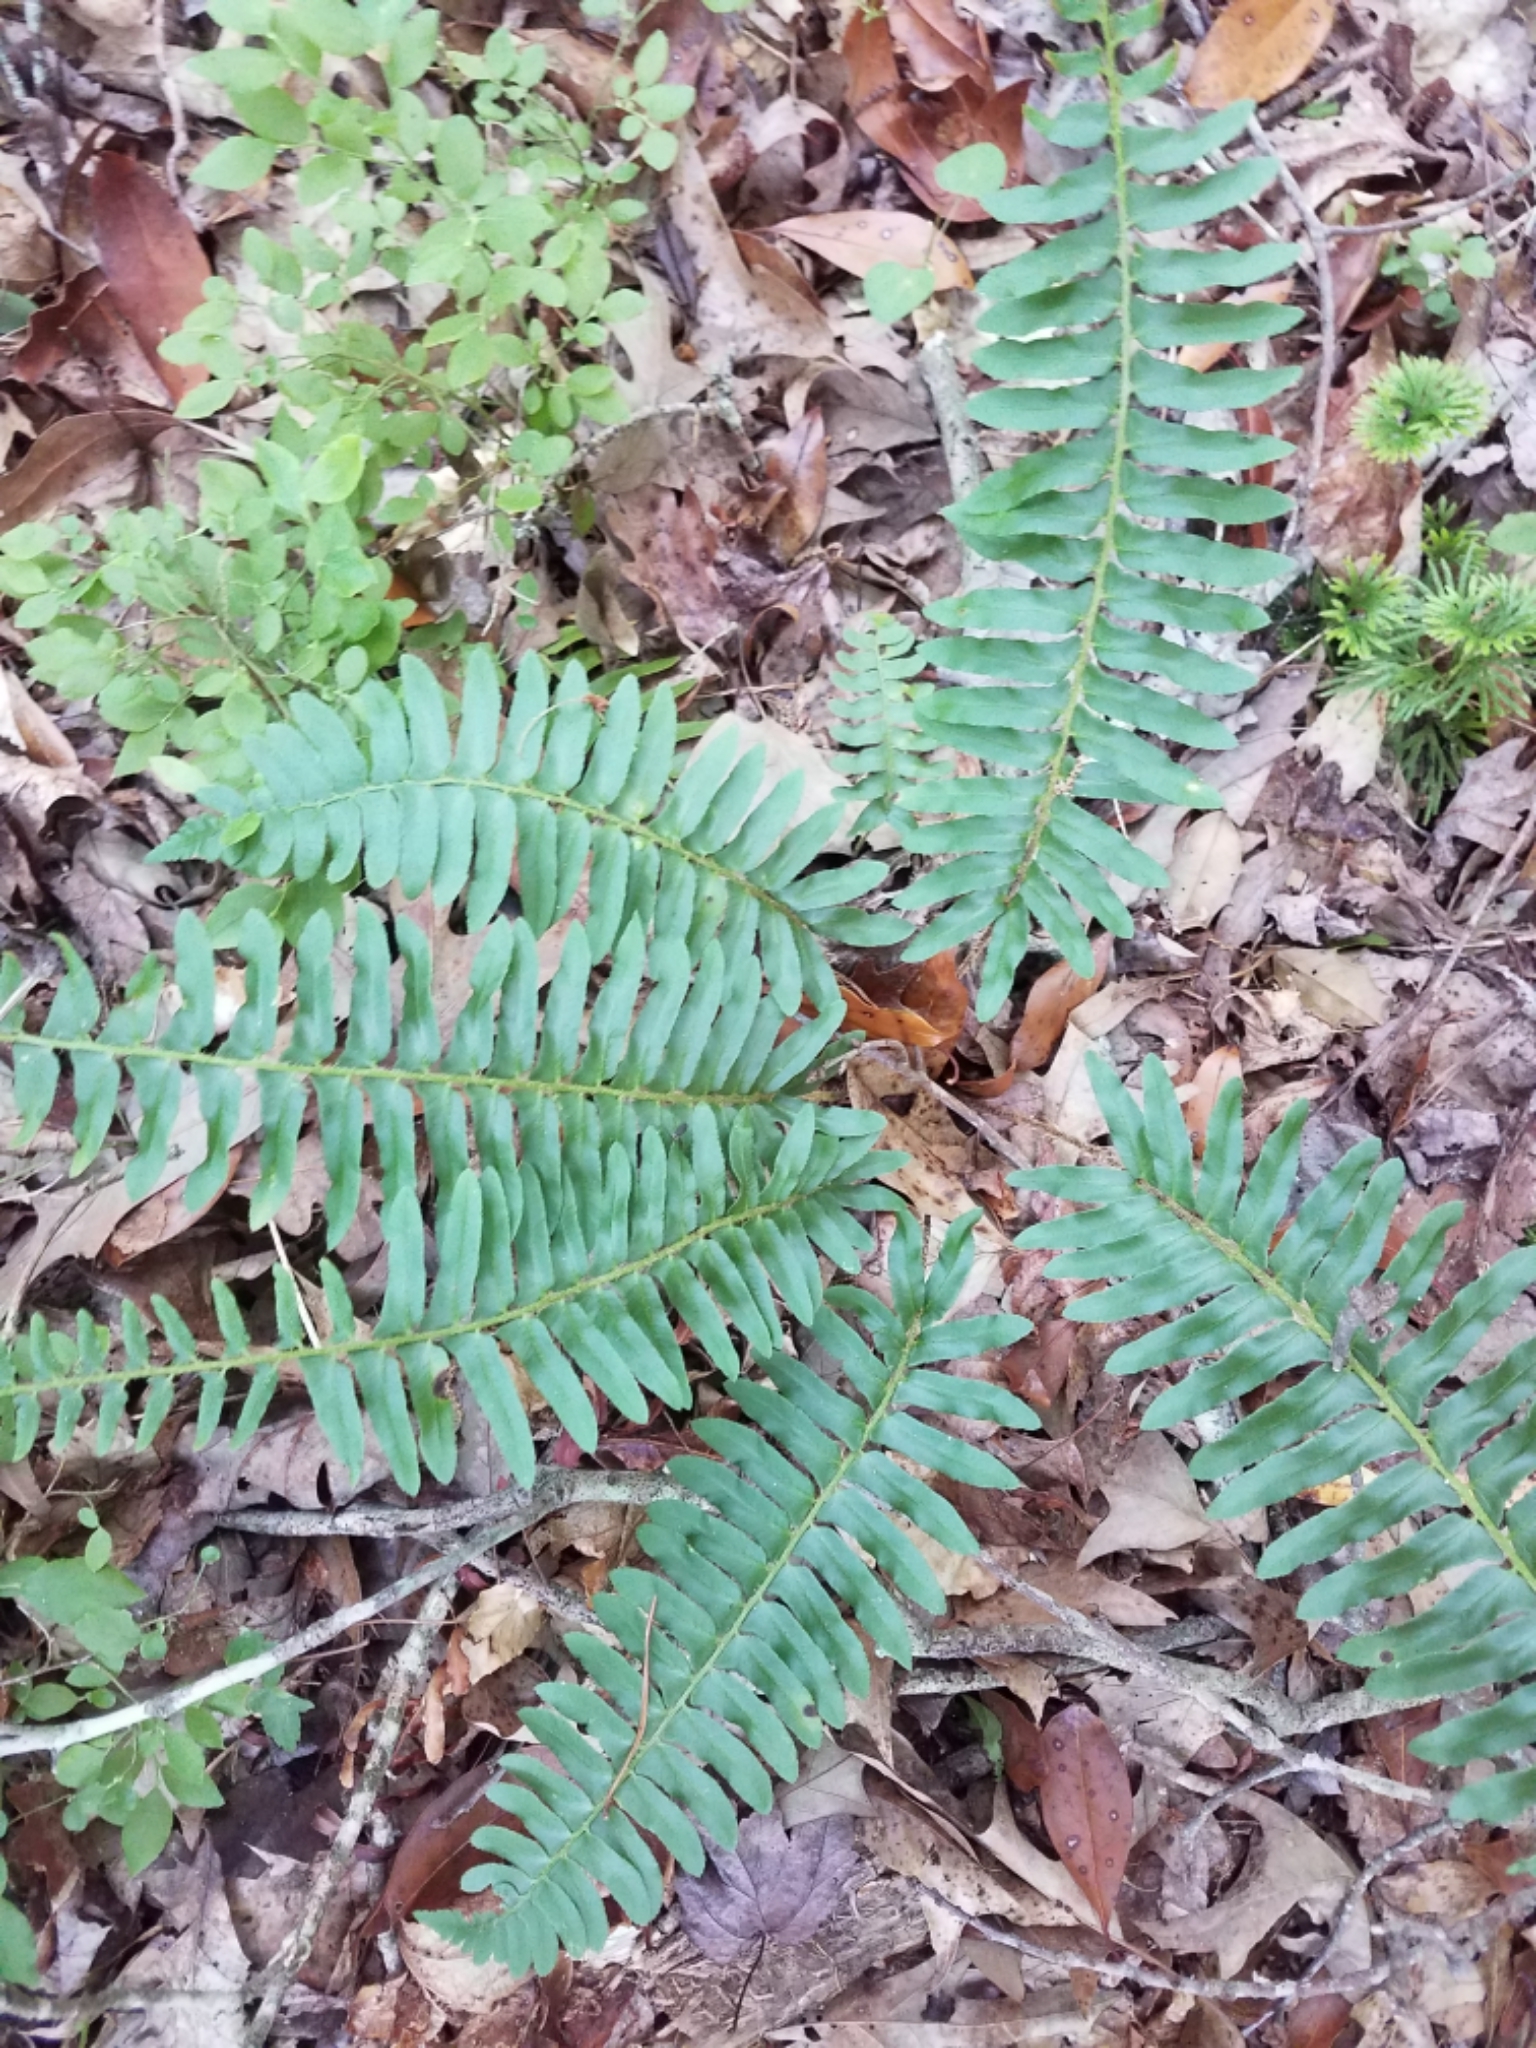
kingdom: Plantae
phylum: Tracheophyta
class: Polypodiopsida
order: Polypodiales
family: Dryopteridaceae
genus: Polystichum
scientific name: Polystichum acrostichoides
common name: Christmas fern
